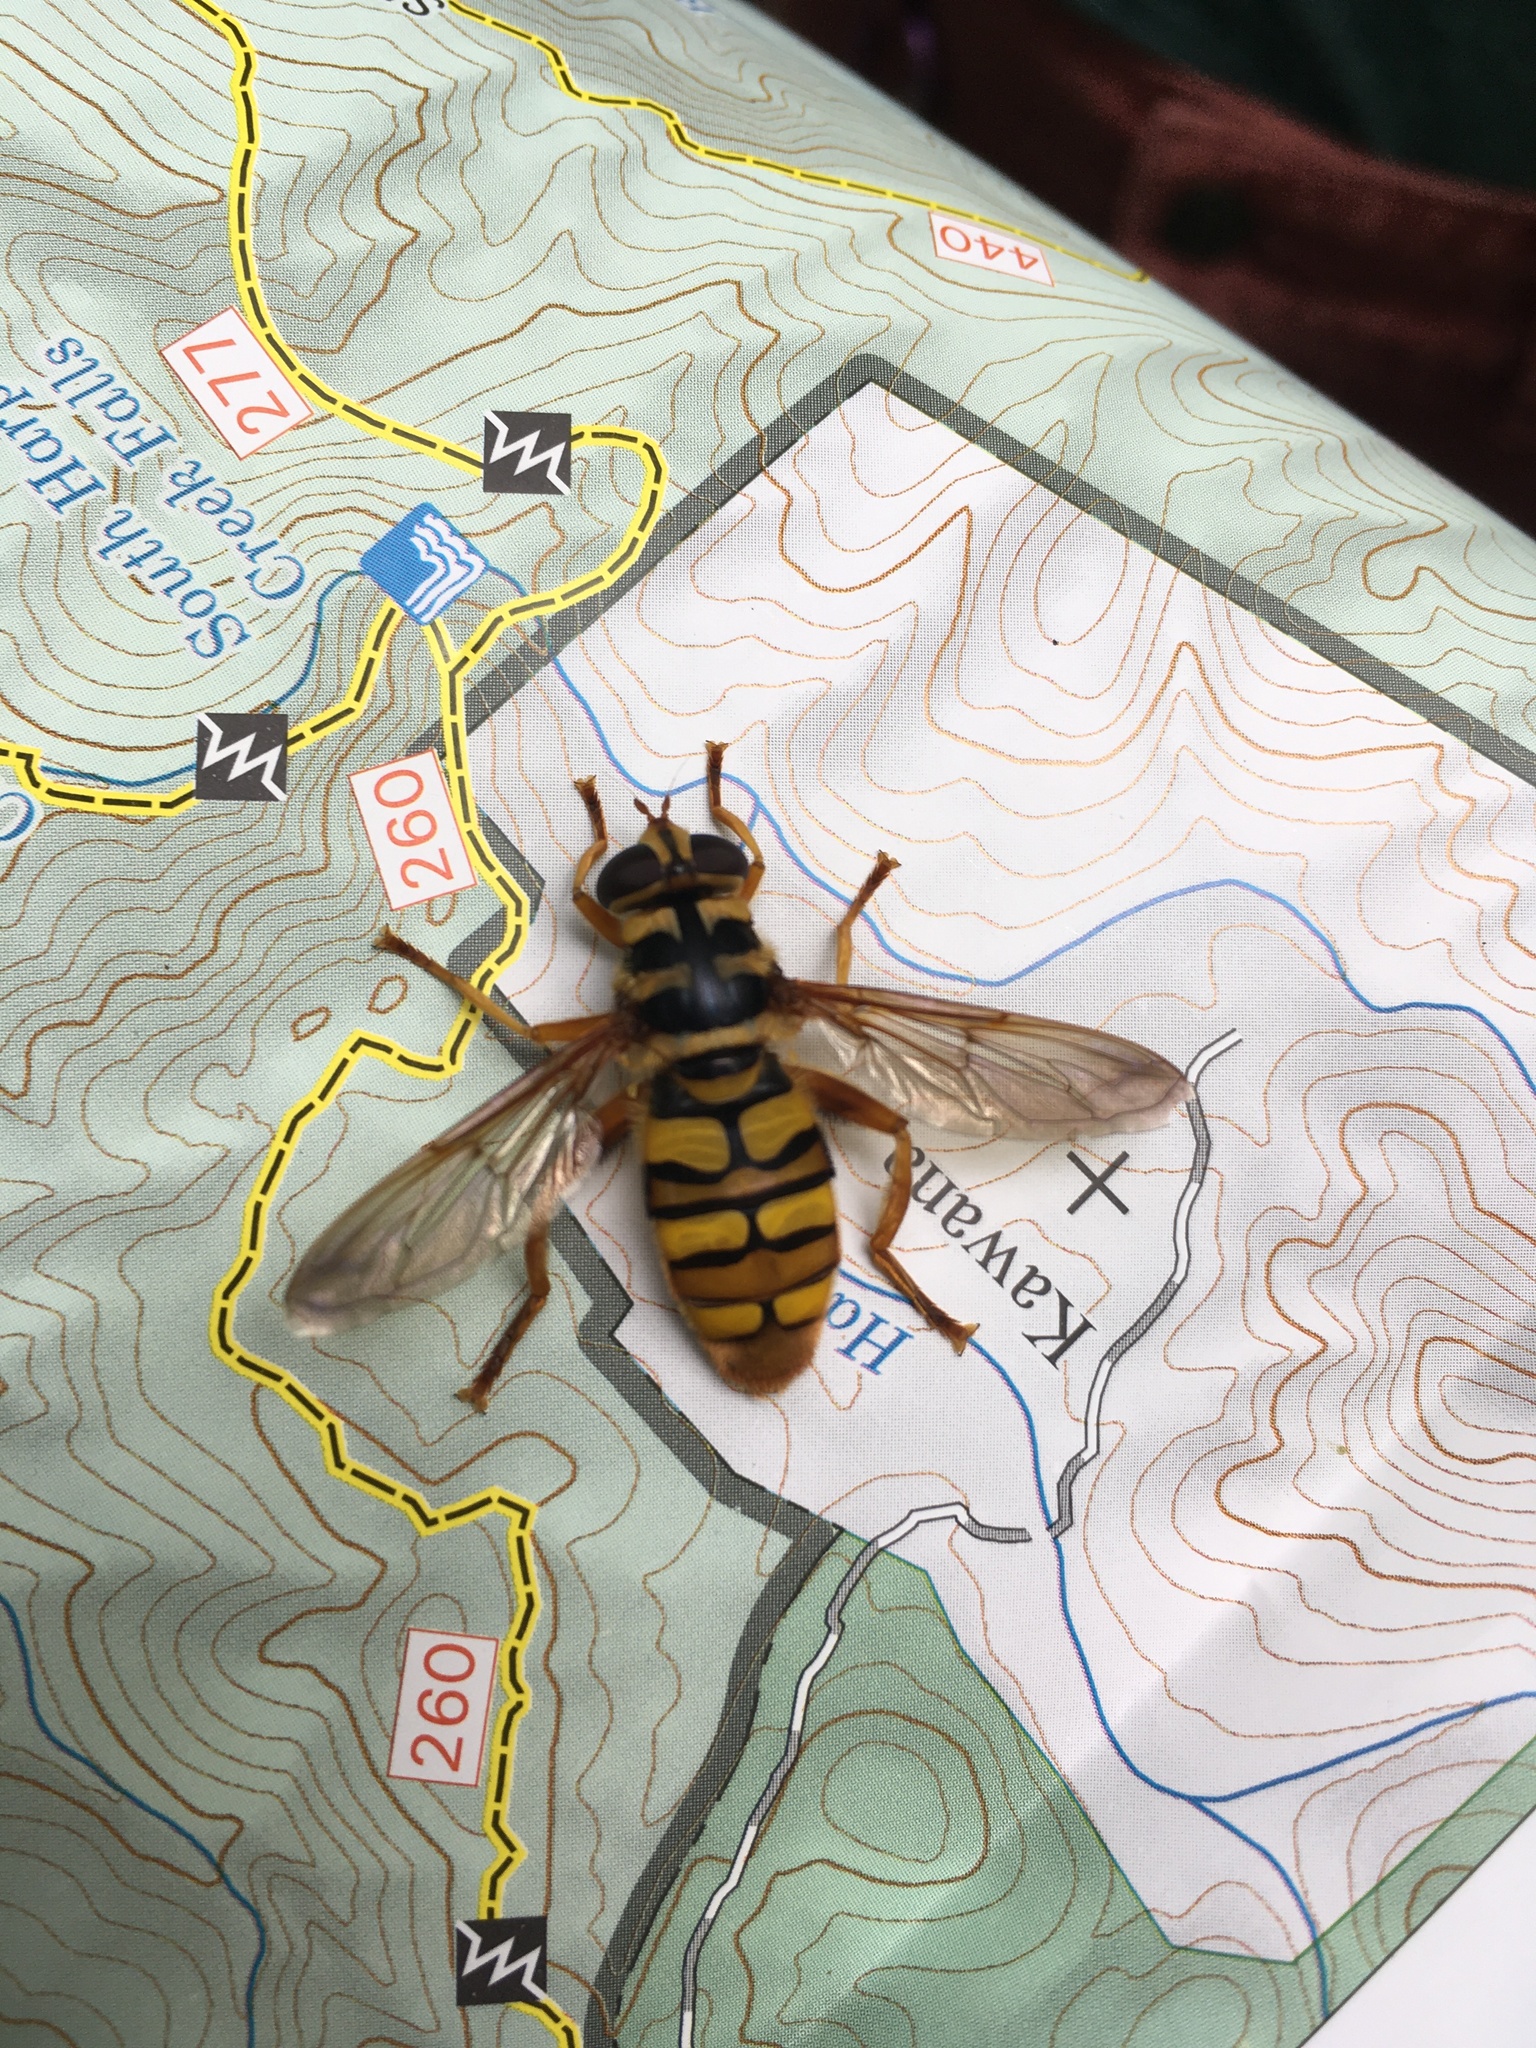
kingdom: Animalia
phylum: Arthropoda
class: Insecta
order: Diptera
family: Syrphidae
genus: Milesia
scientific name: Milesia virginiensis
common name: Virginia giant
